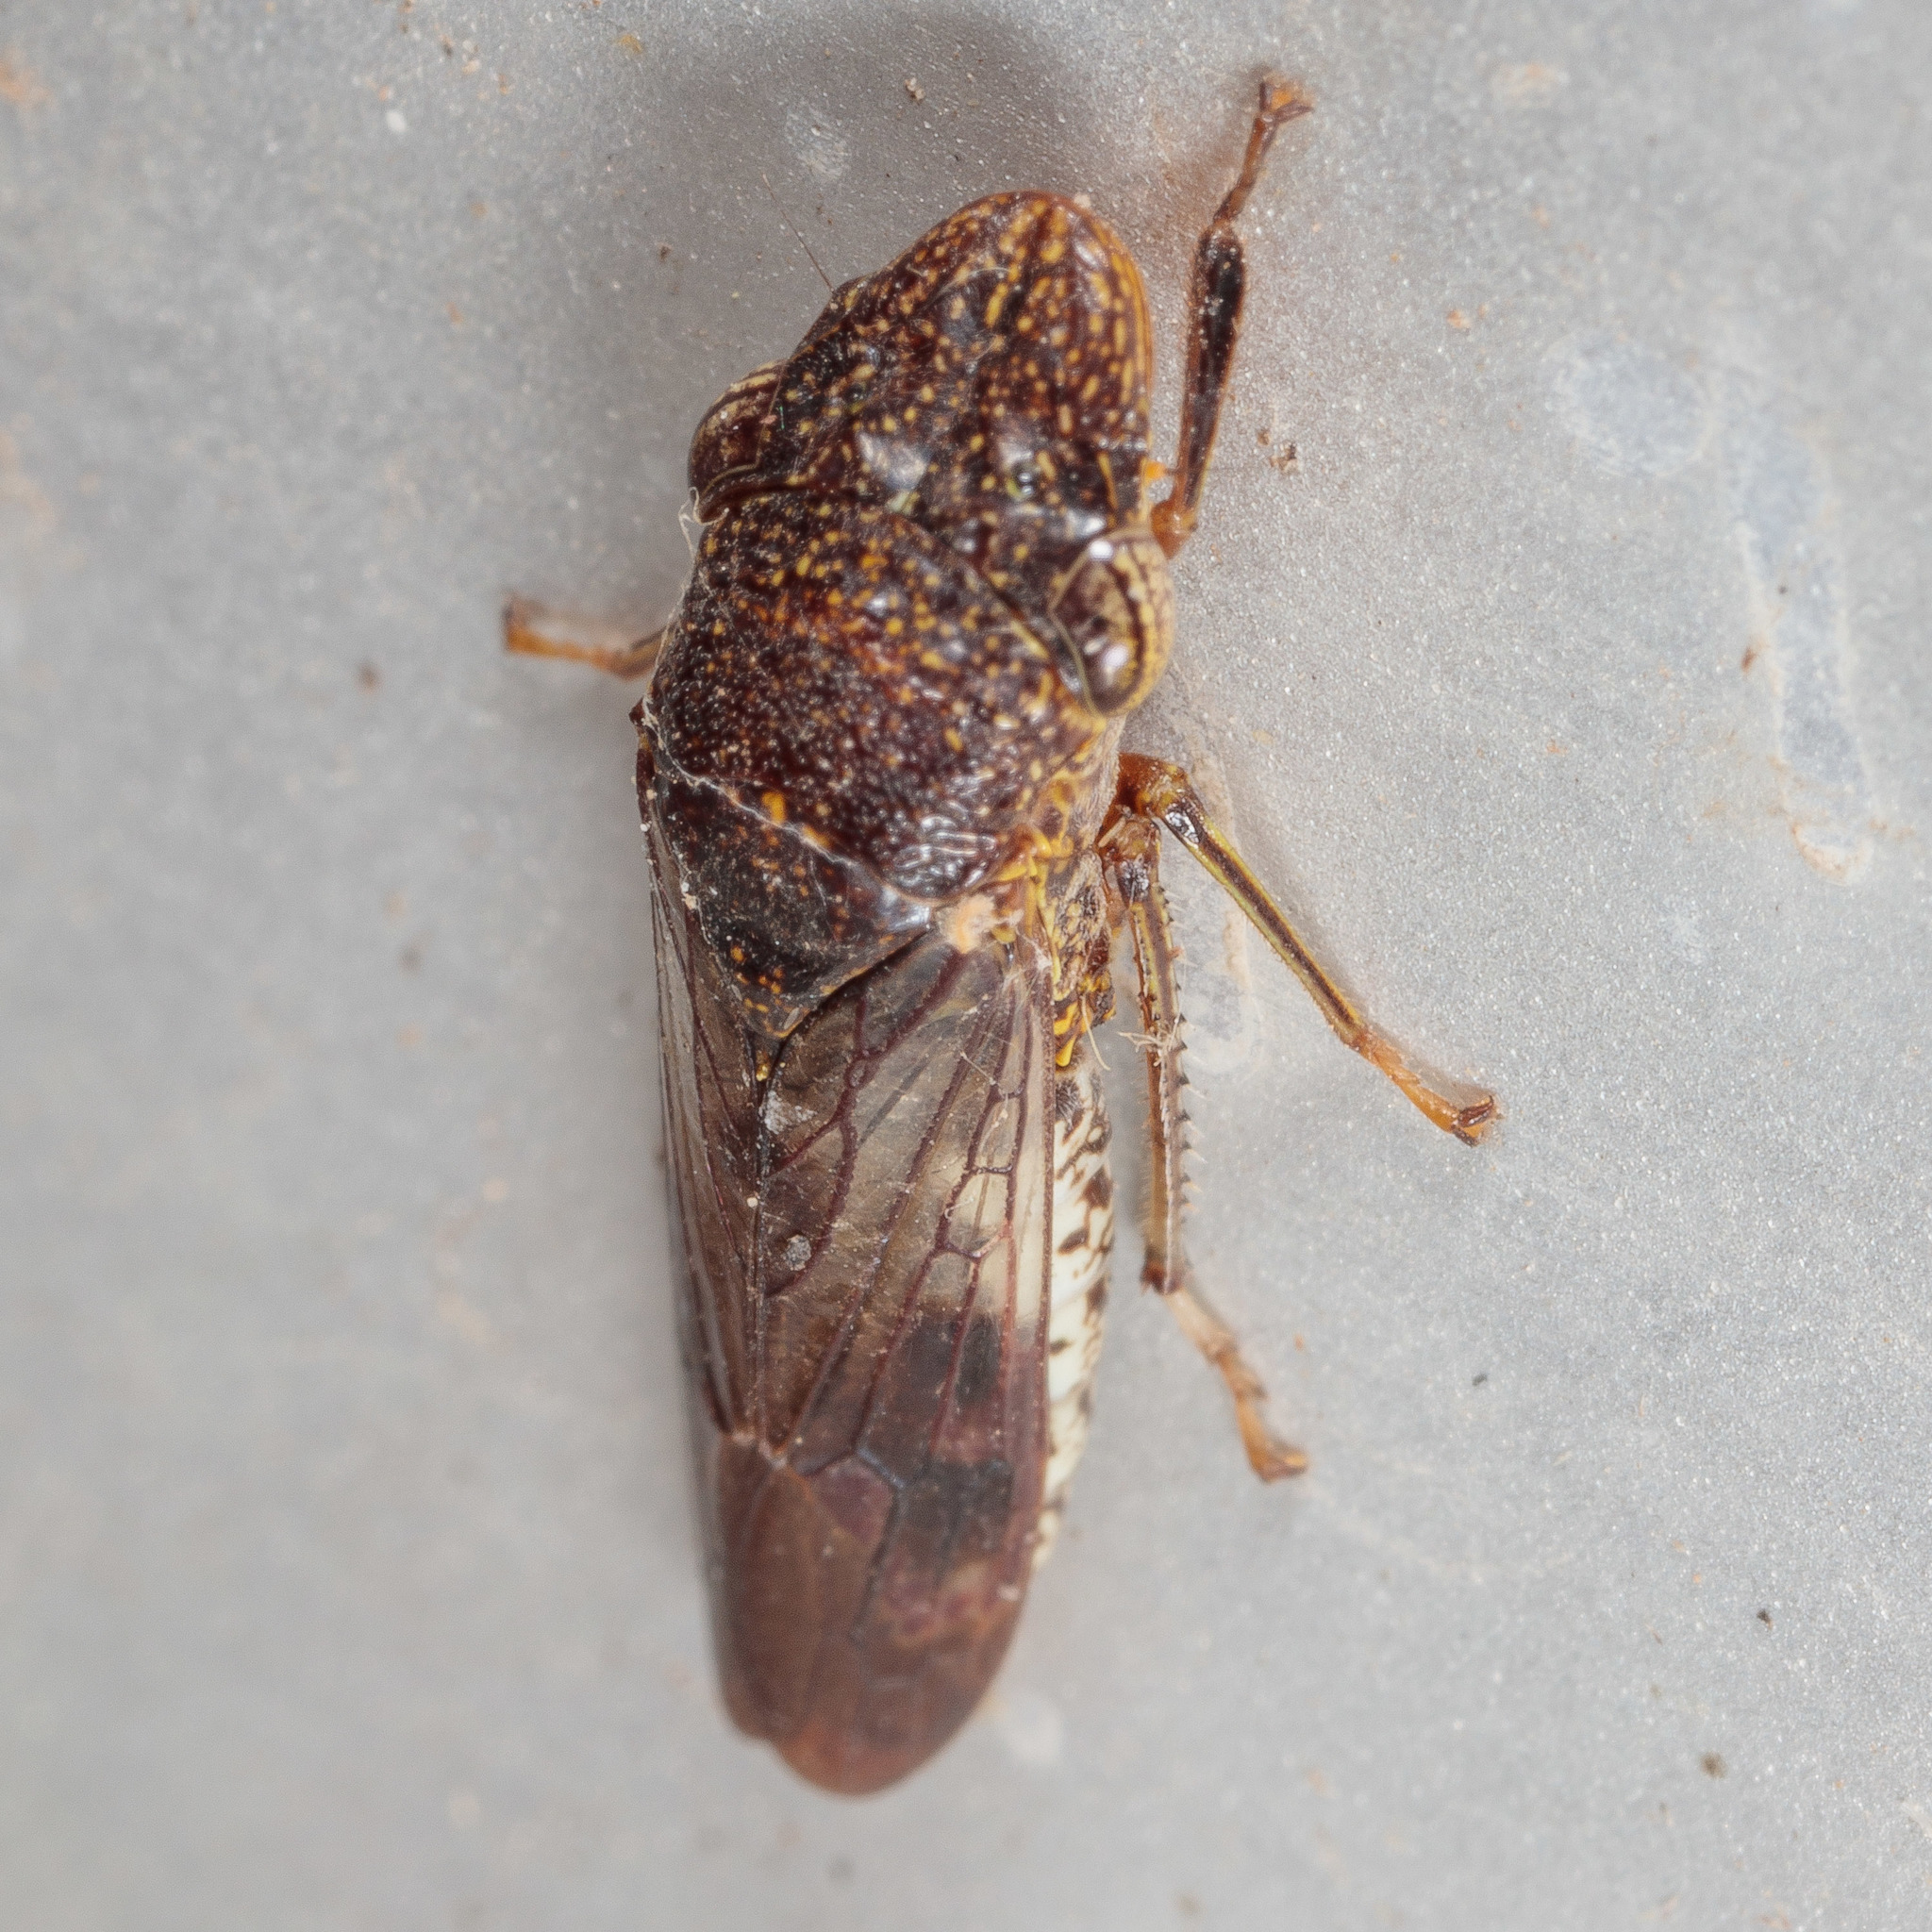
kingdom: Animalia
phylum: Arthropoda
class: Insecta
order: Hemiptera
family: Cicadellidae
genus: Homalodisca
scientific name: Homalodisca vitripennis
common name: Glassy-winged sharpshooter
